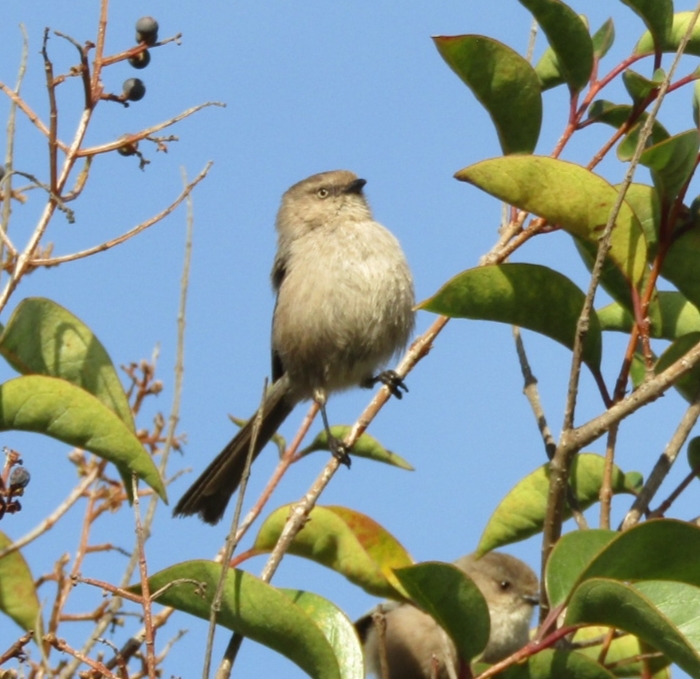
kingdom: Animalia
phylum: Chordata
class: Aves
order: Passeriformes
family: Aegithalidae
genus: Psaltriparus
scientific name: Psaltriparus minimus
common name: American bushtit
